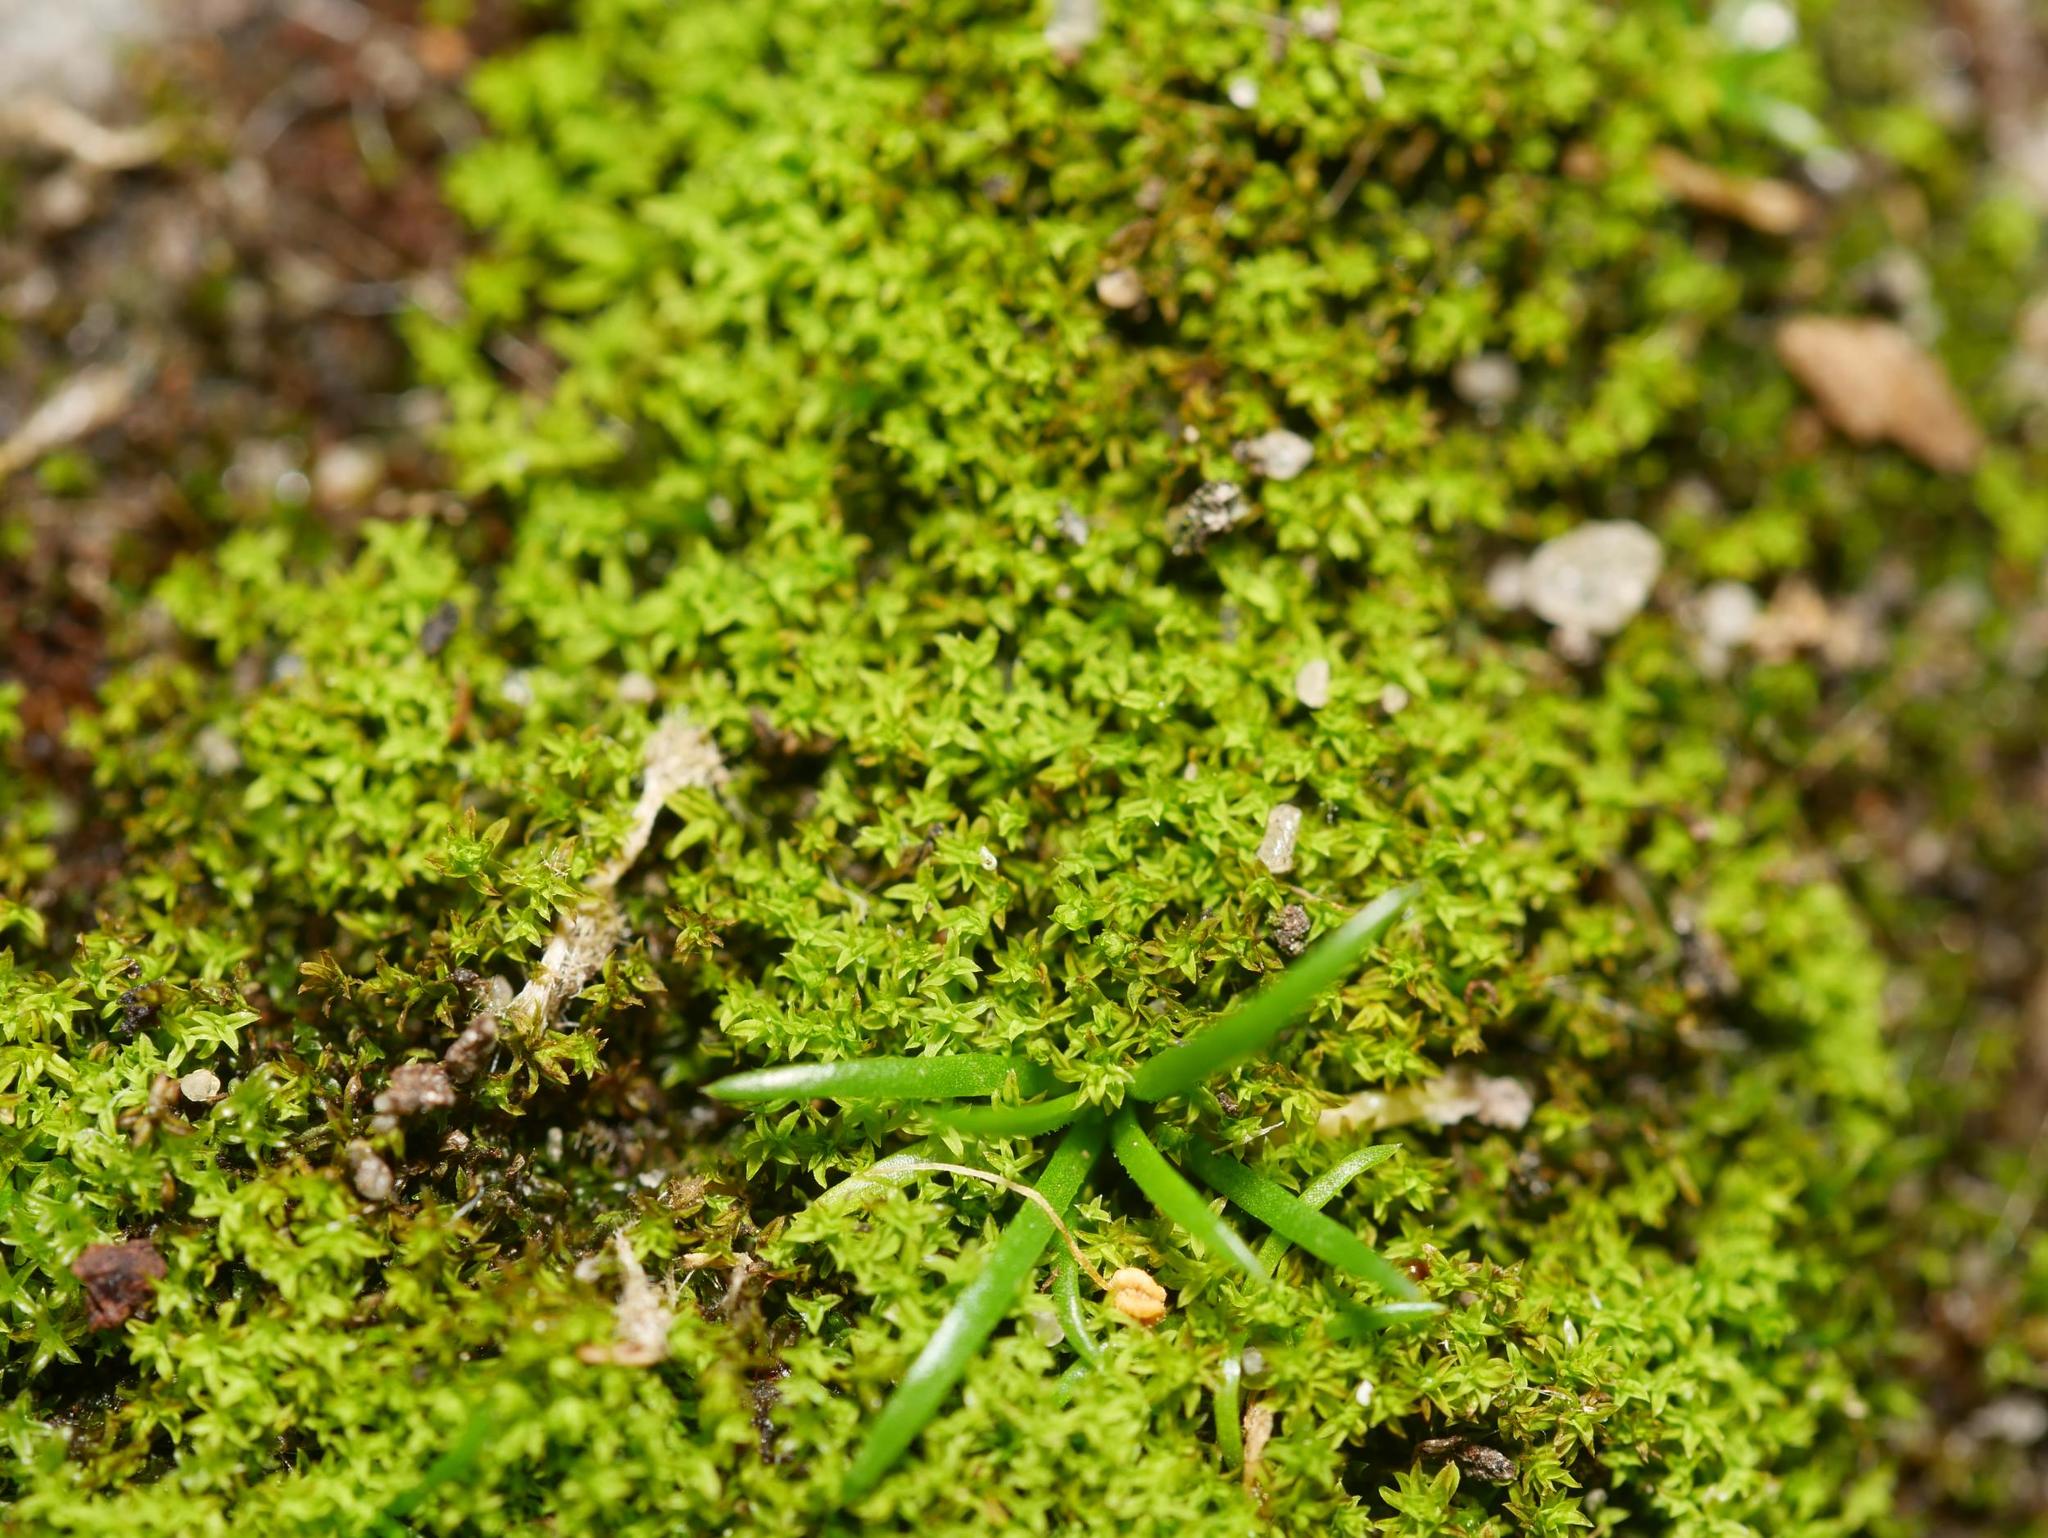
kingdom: Plantae
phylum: Bryophyta
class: Bryopsida
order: Pottiales
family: Pottiaceae
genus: Barbula
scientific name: Barbula unguiculata
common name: Prickly beard moss
